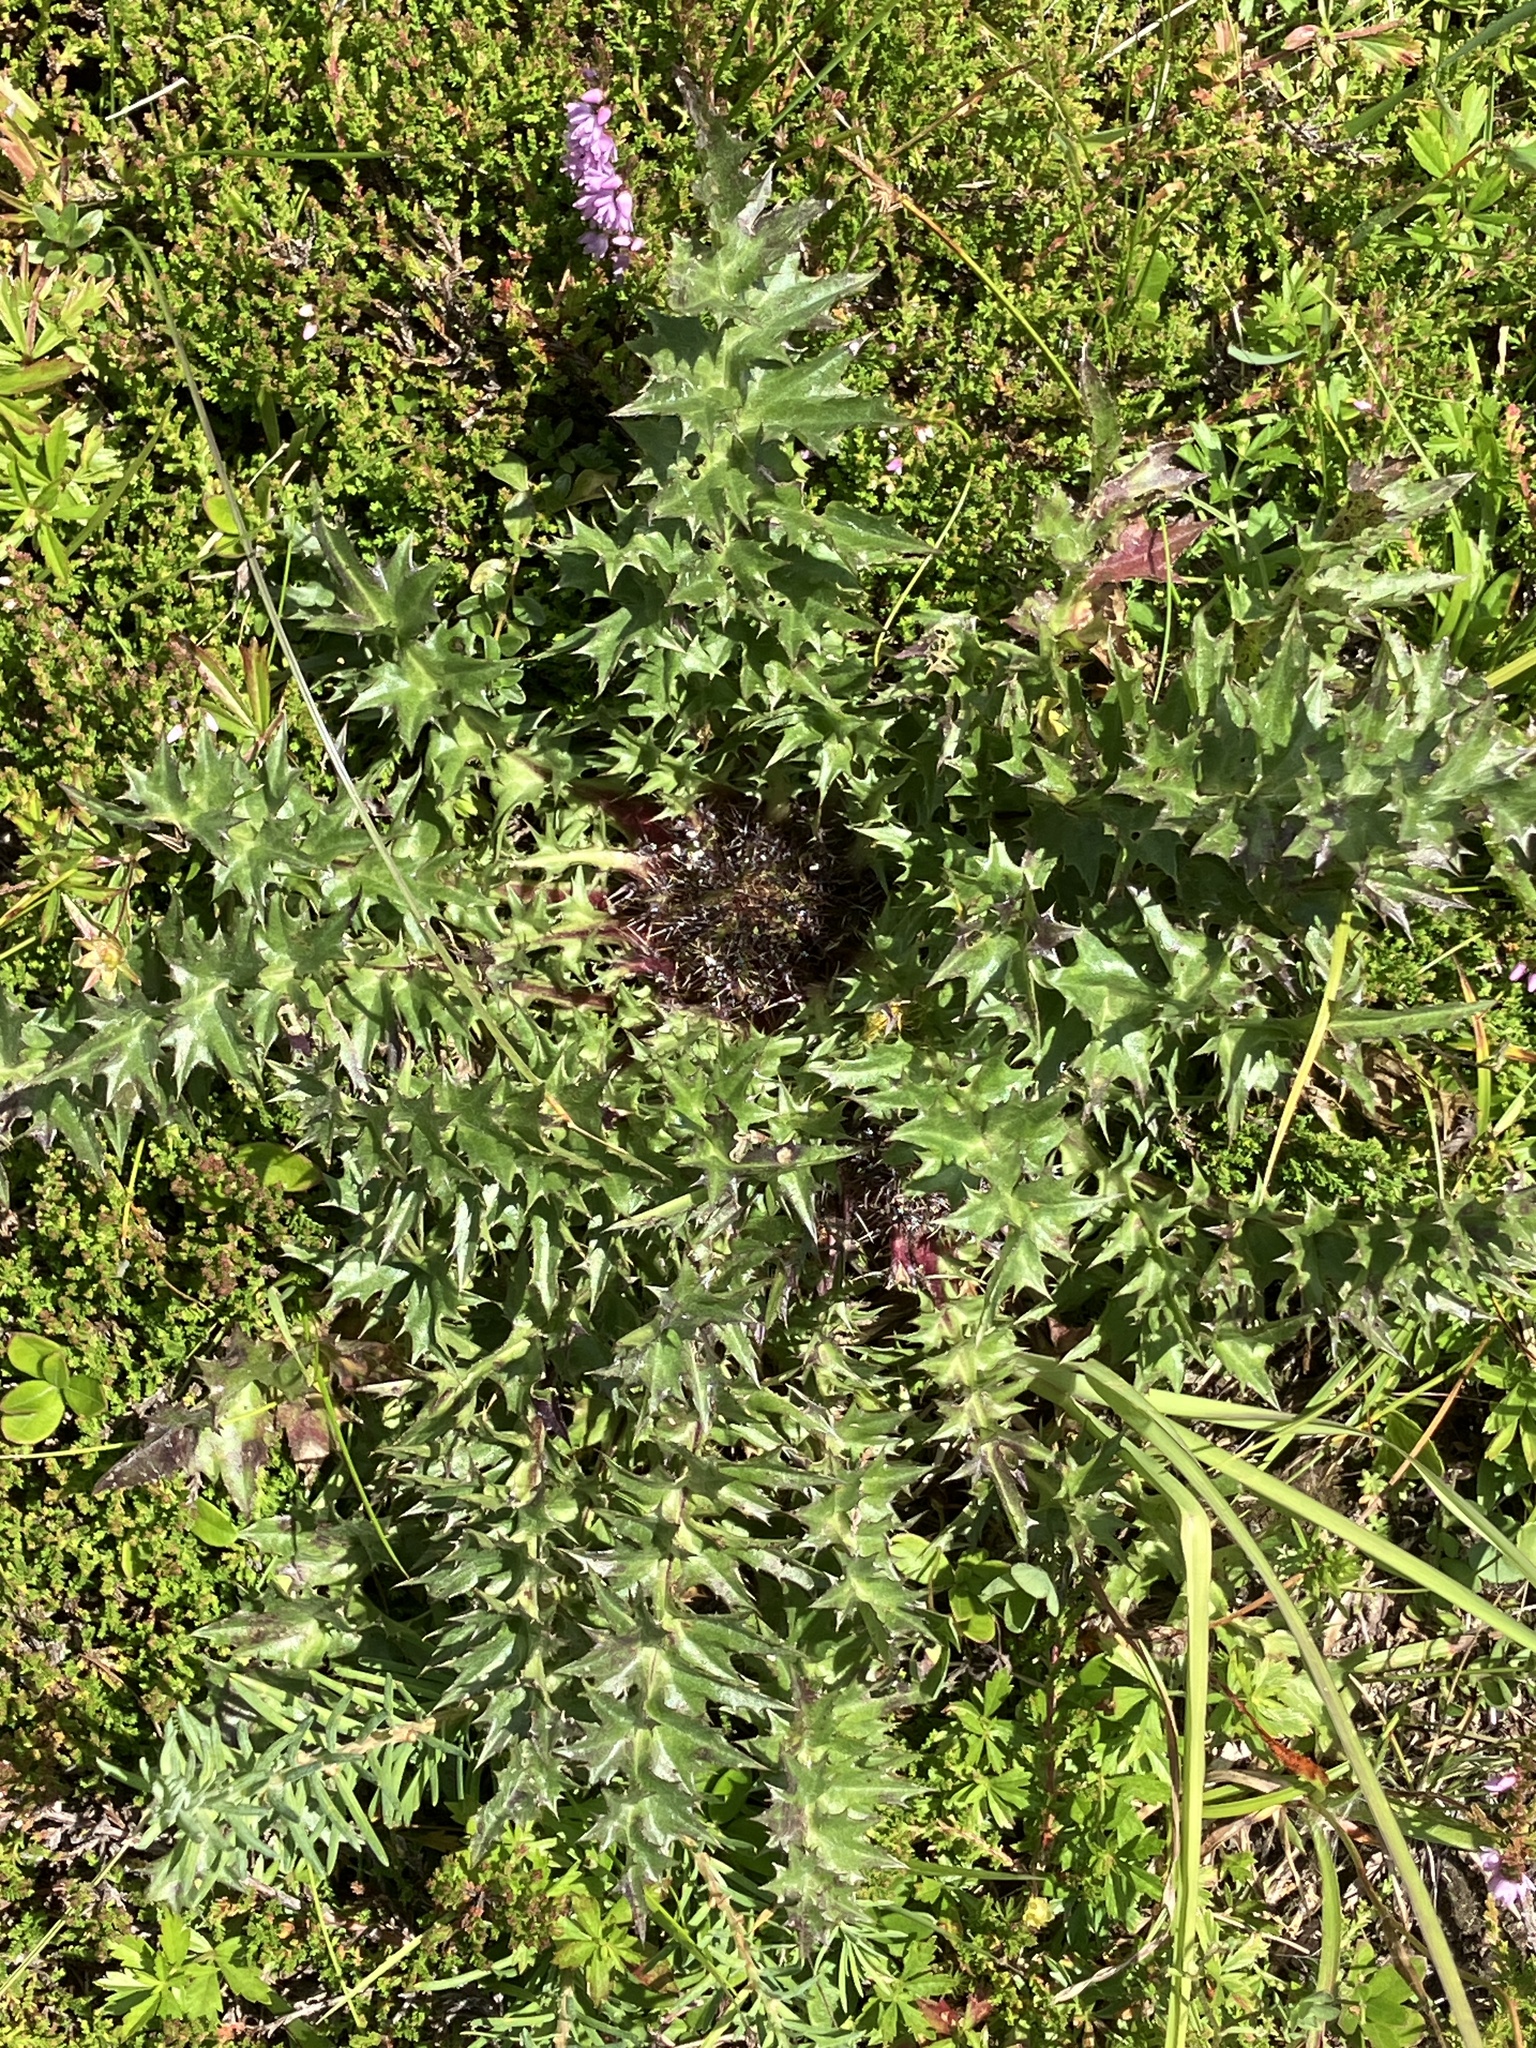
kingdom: Plantae
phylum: Tracheophyta
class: Magnoliopsida
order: Asterales
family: Asteraceae
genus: Carlina
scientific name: Carlina acaulis
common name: Stemless carline thistle
